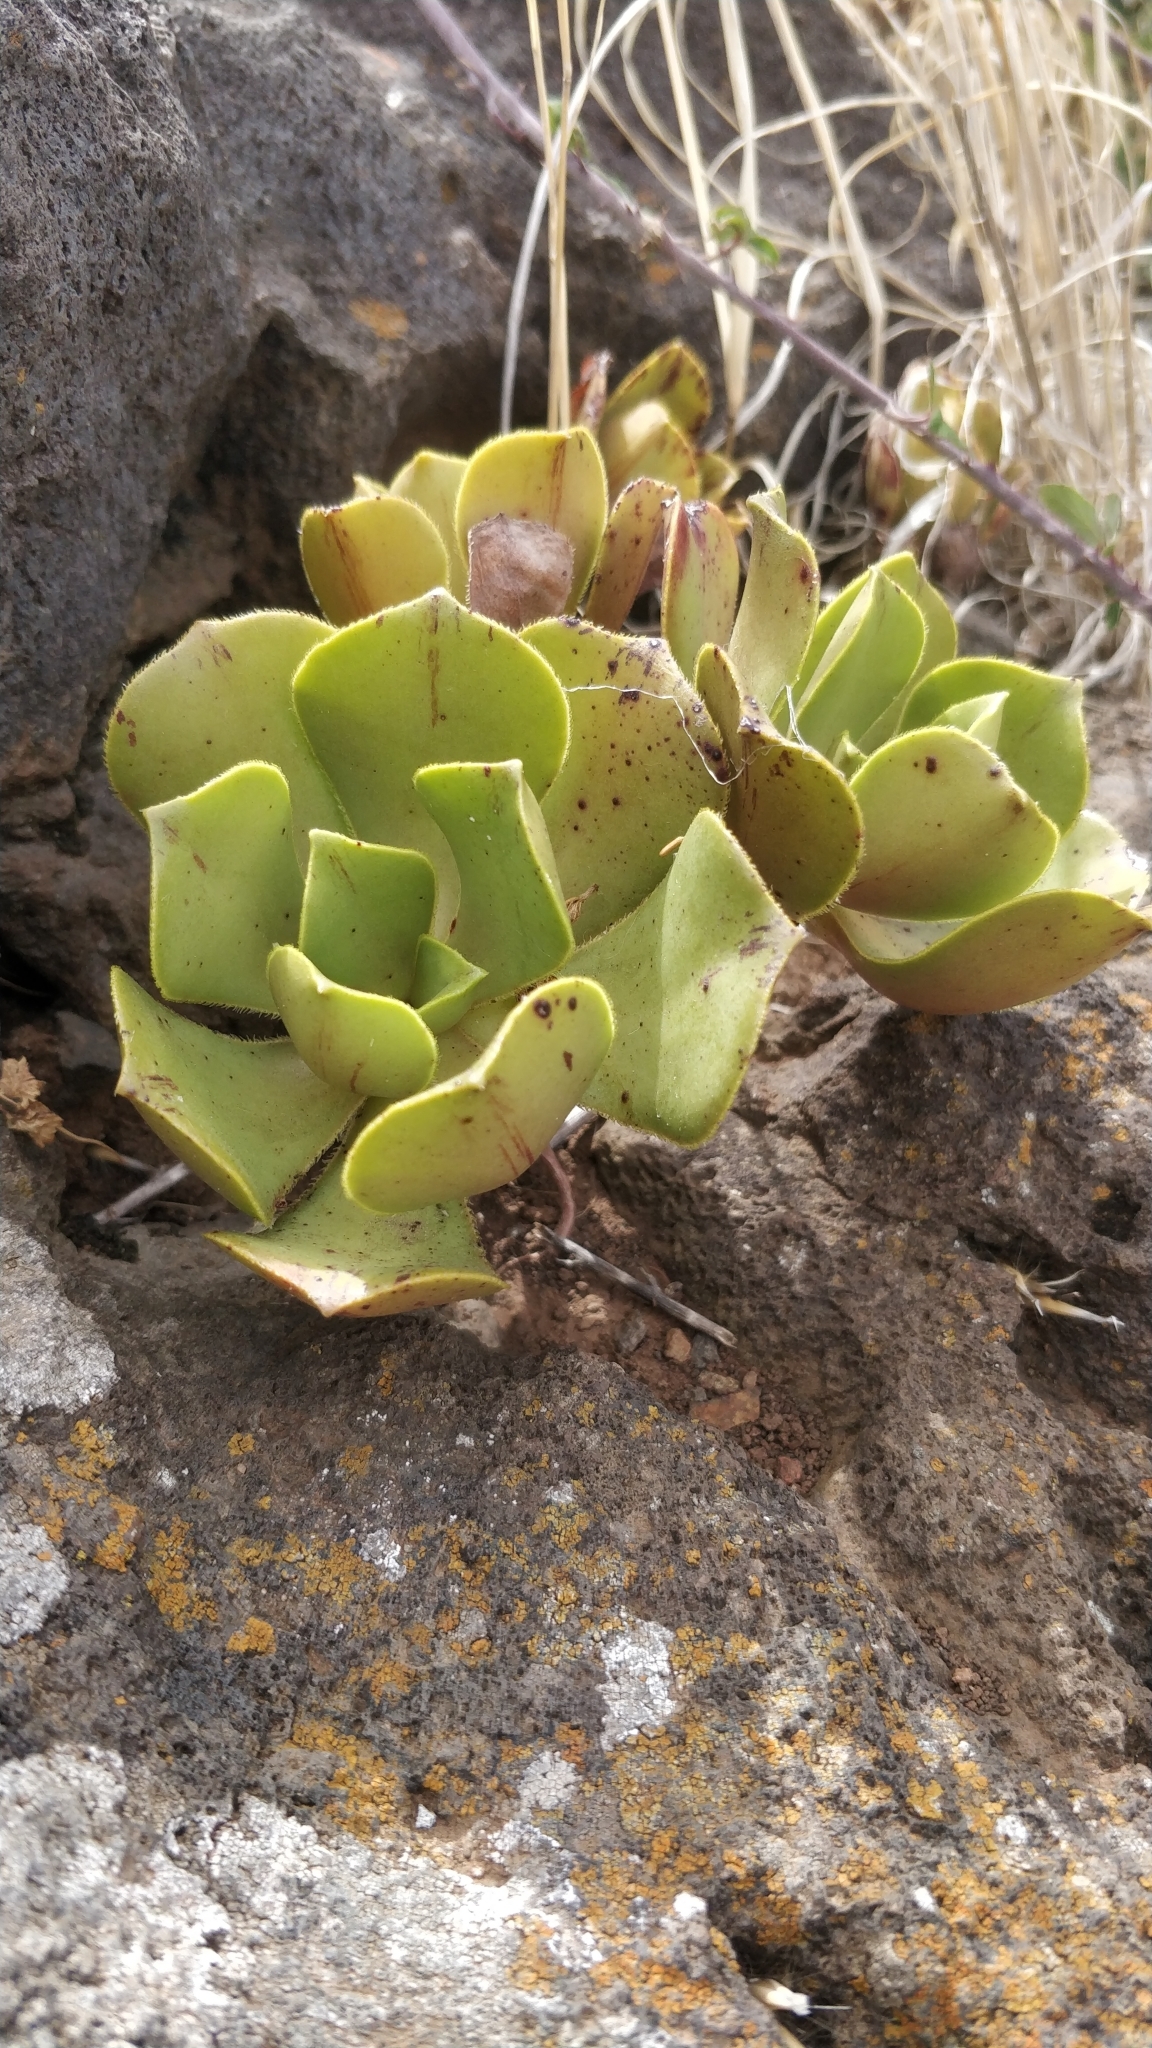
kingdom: Plantae
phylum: Tracheophyta
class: Magnoliopsida
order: Saxifragales
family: Crassulaceae
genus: Aeonium
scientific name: Aeonium glutinosum
